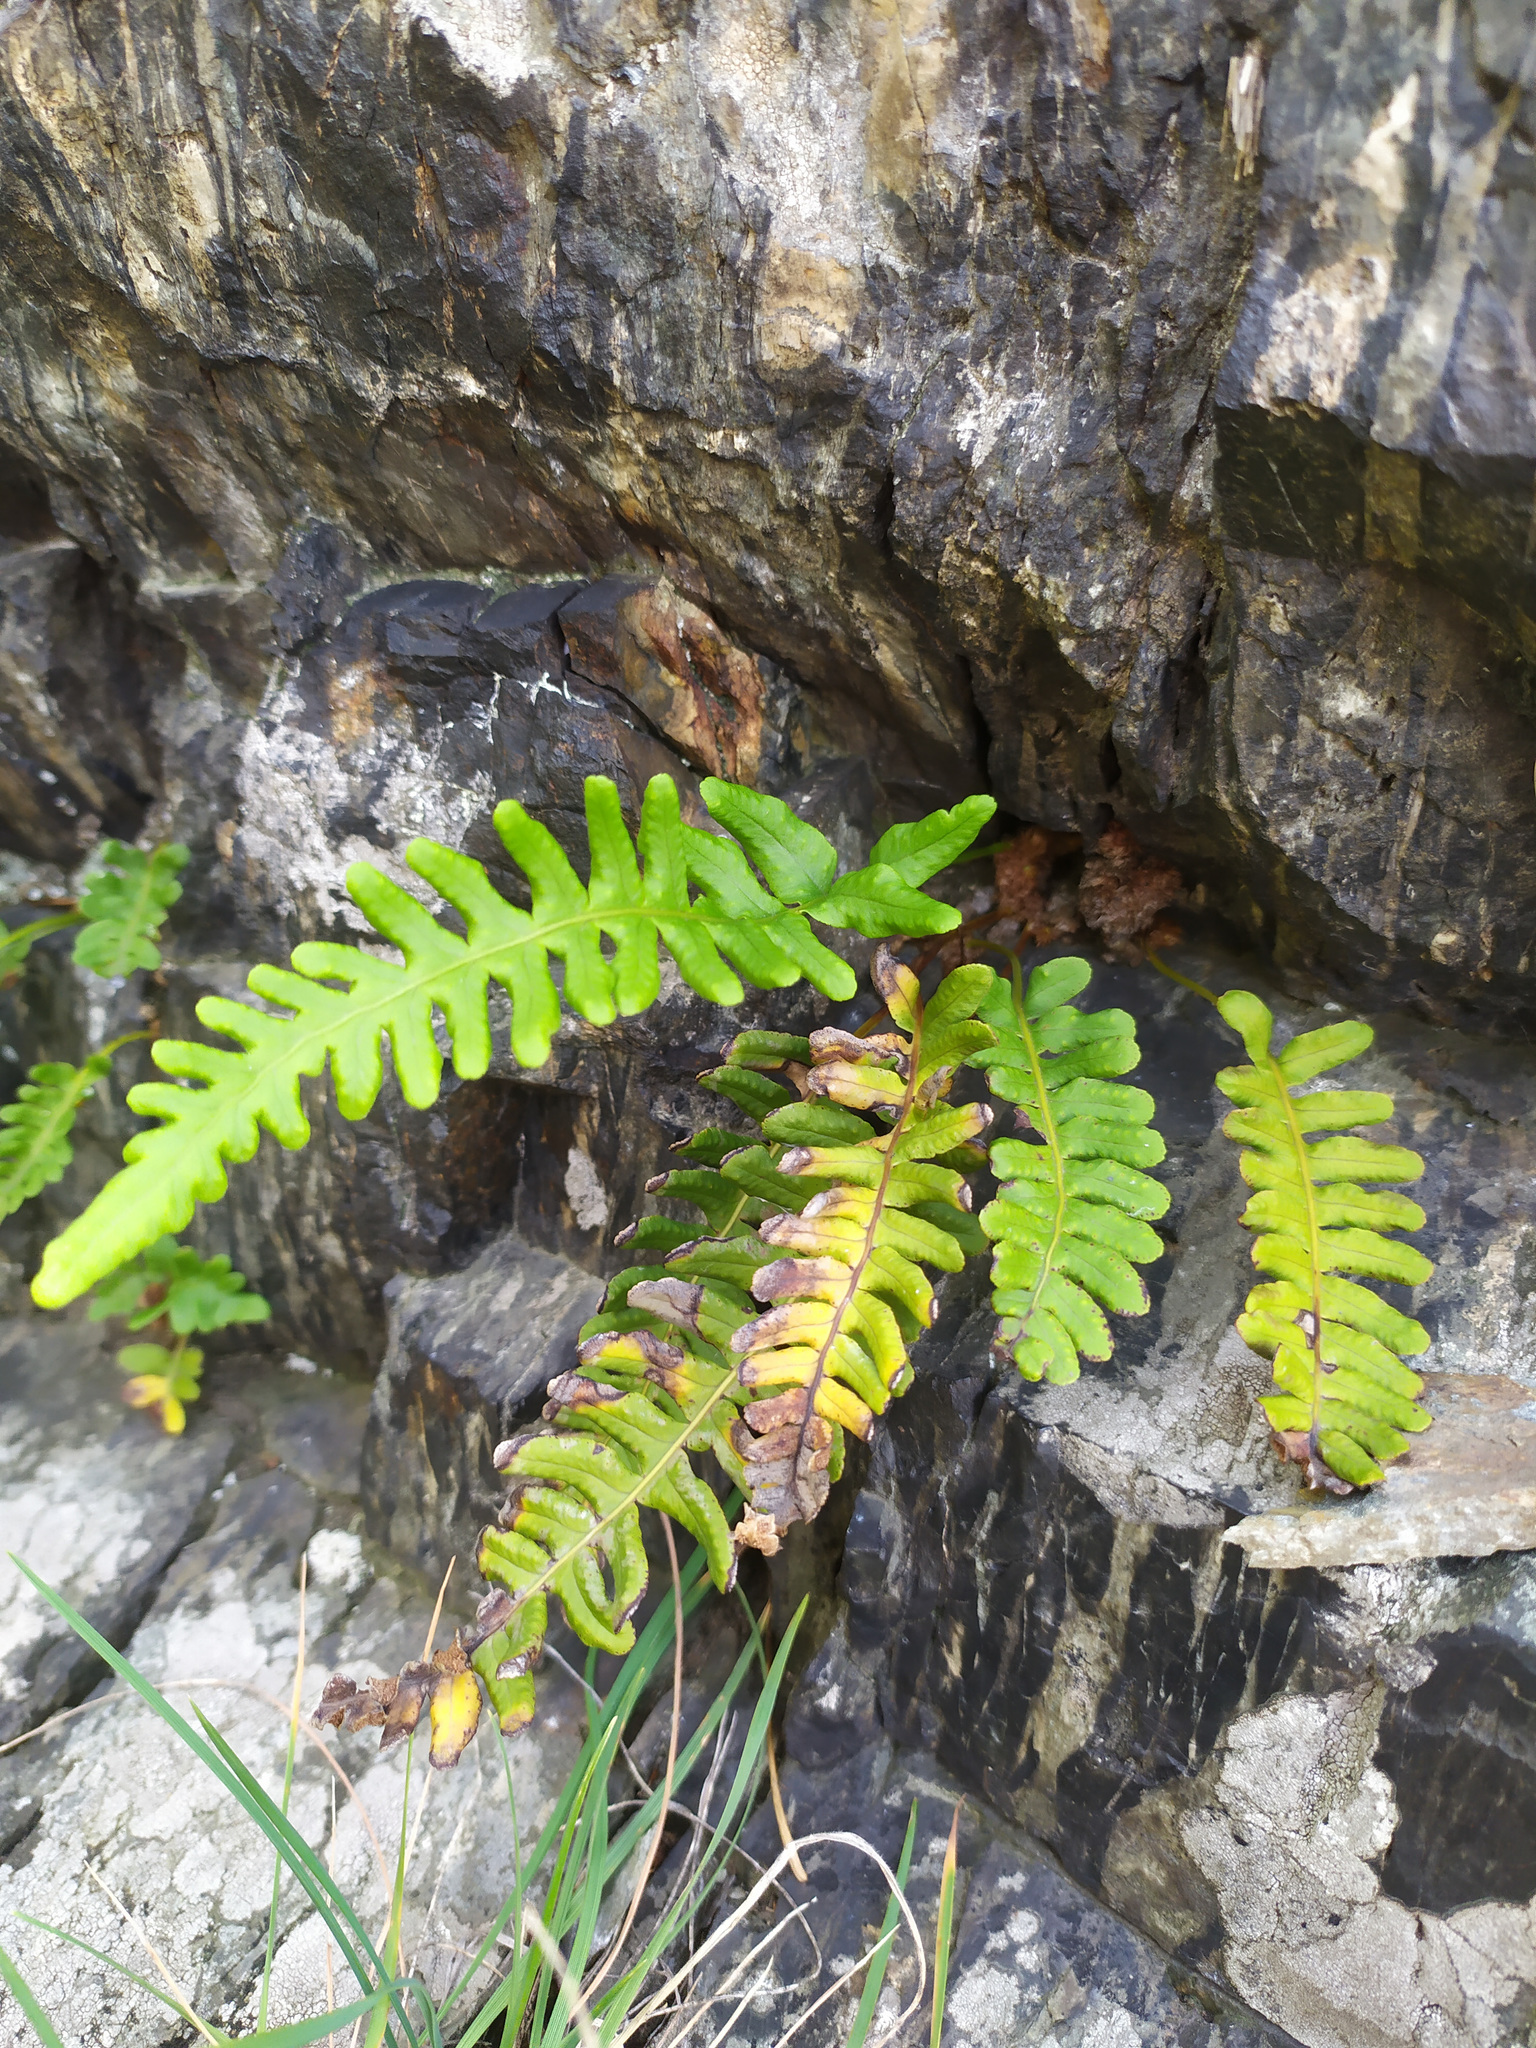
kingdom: Plantae
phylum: Tracheophyta
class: Polypodiopsida
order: Polypodiales
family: Polypodiaceae
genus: Polypodium
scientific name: Polypodium vulgare
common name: Common polypody
